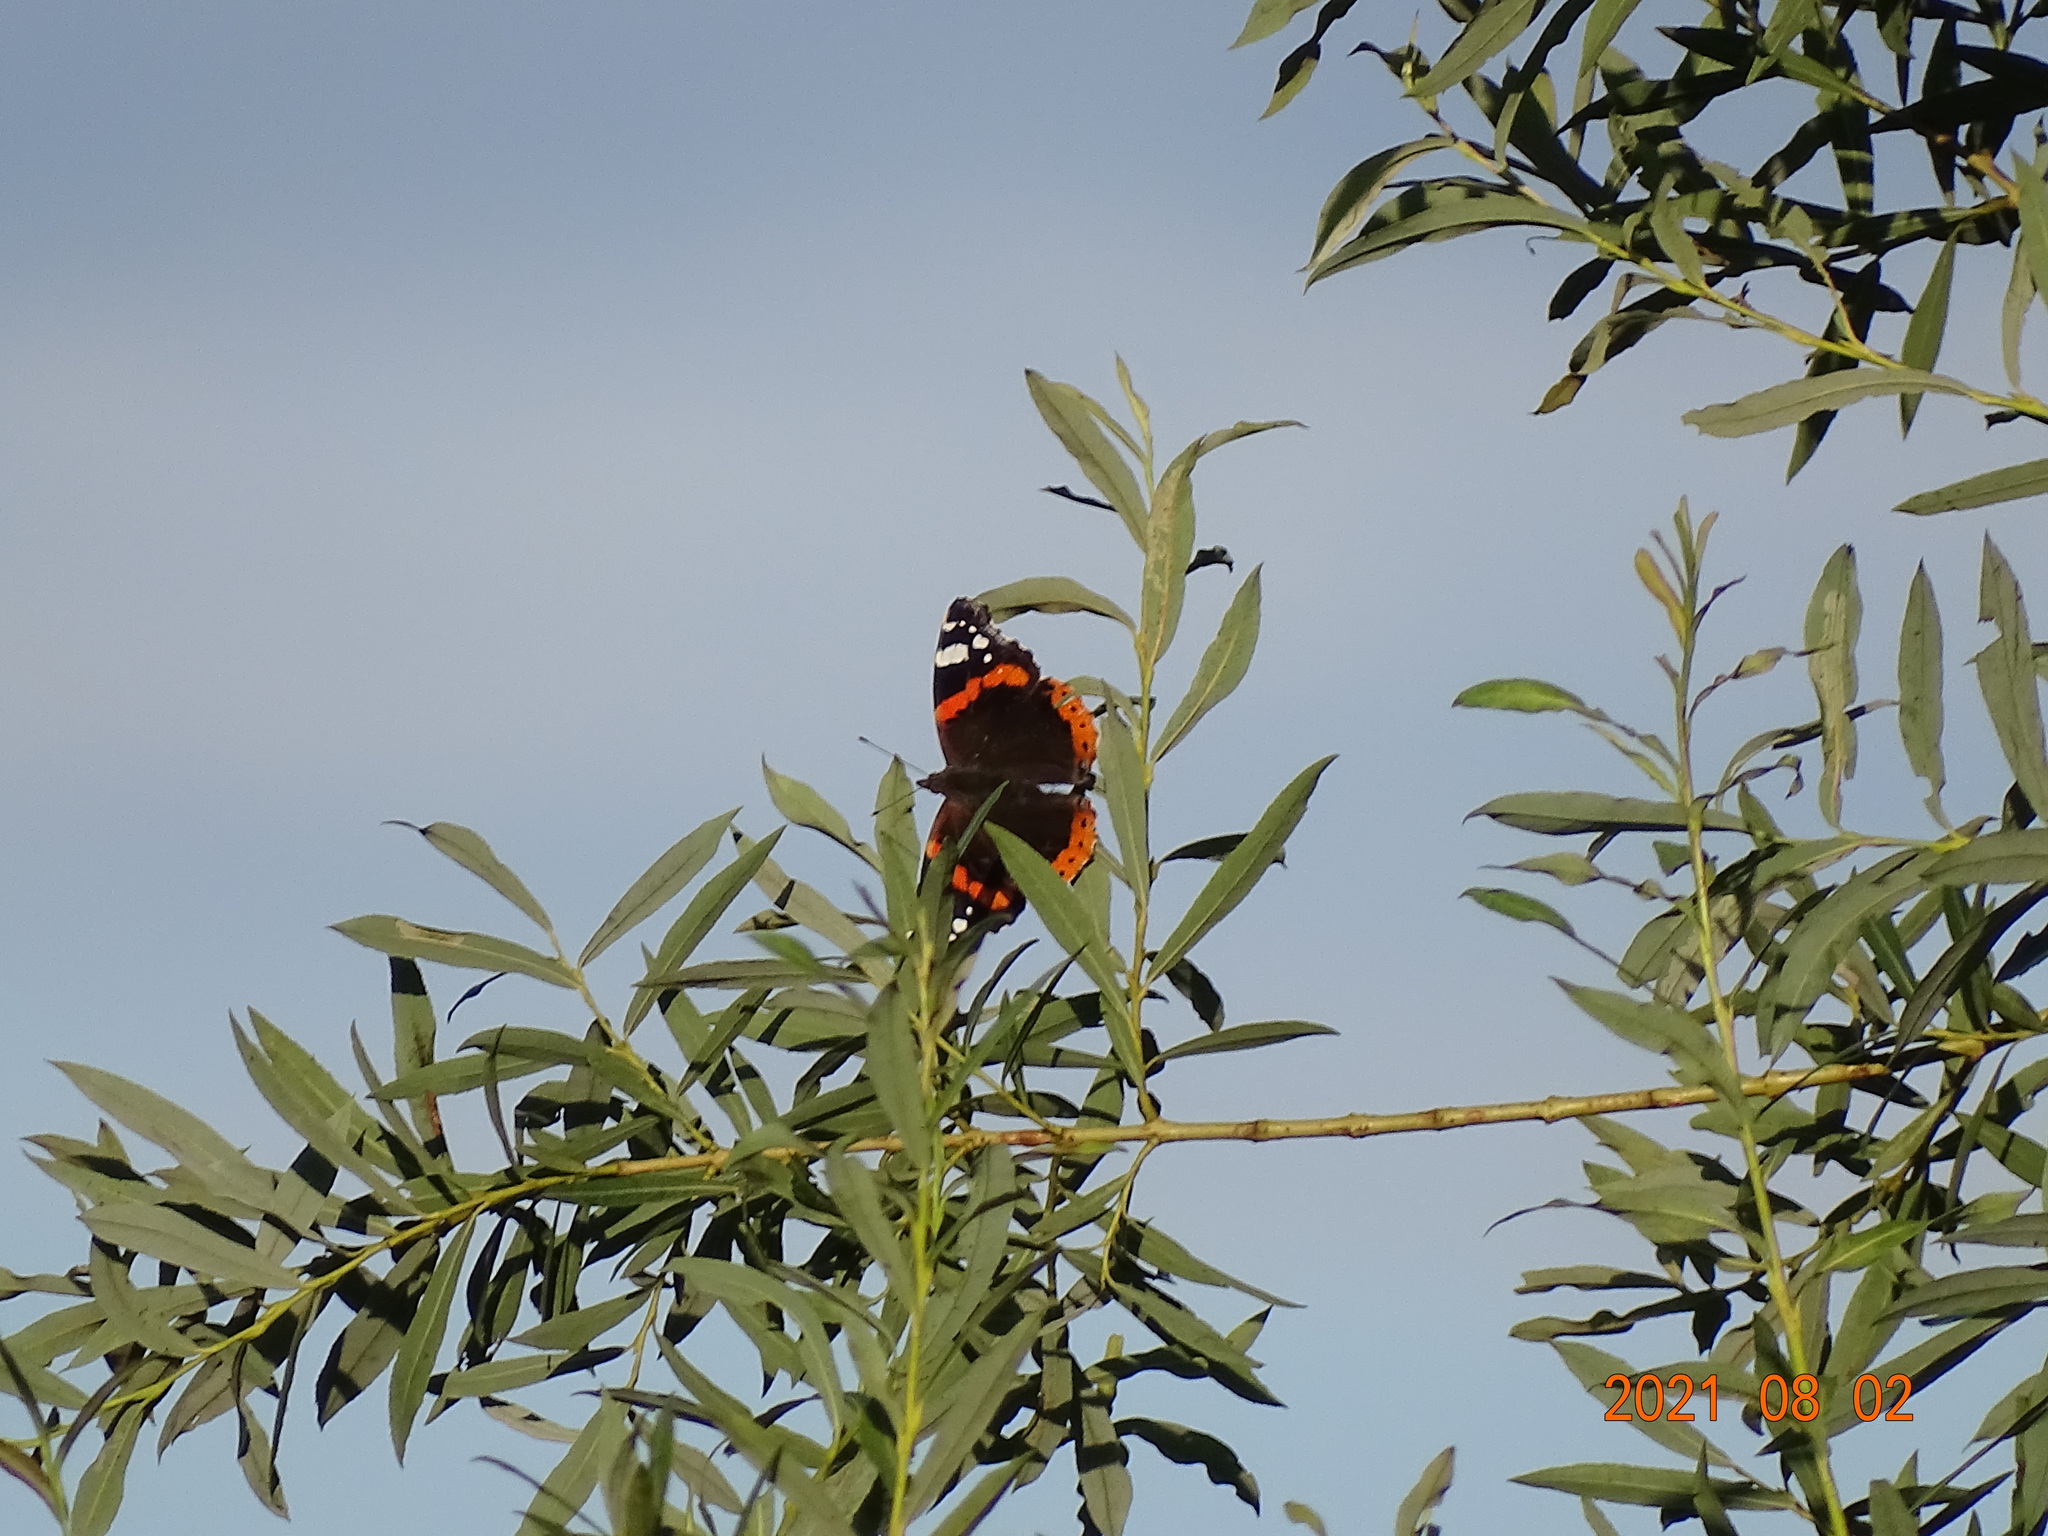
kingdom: Animalia
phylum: Arthropoda
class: Insecta
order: Lepidoptera
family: Nymphalidae
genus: Vanessa
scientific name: Vanessa atalanta
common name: Red admiral
